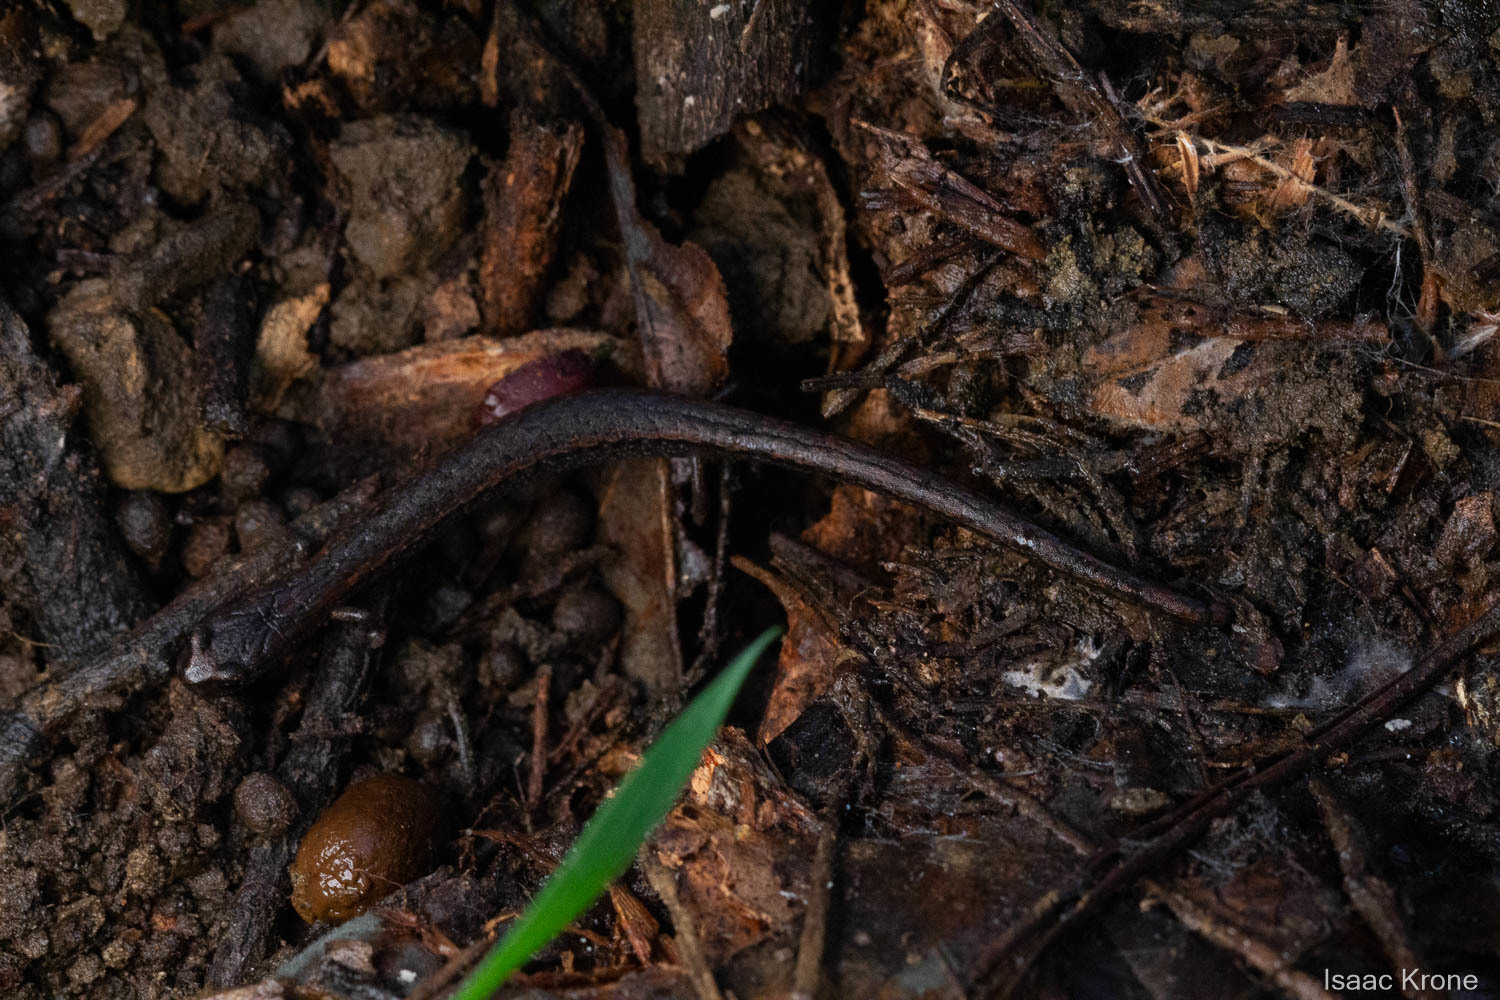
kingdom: Animalia
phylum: Chordata
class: Amphibia
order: Caudata
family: Plethodontidae
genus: Batrachoseps
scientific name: Batrachoseps attenuatus
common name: California slender salamander
